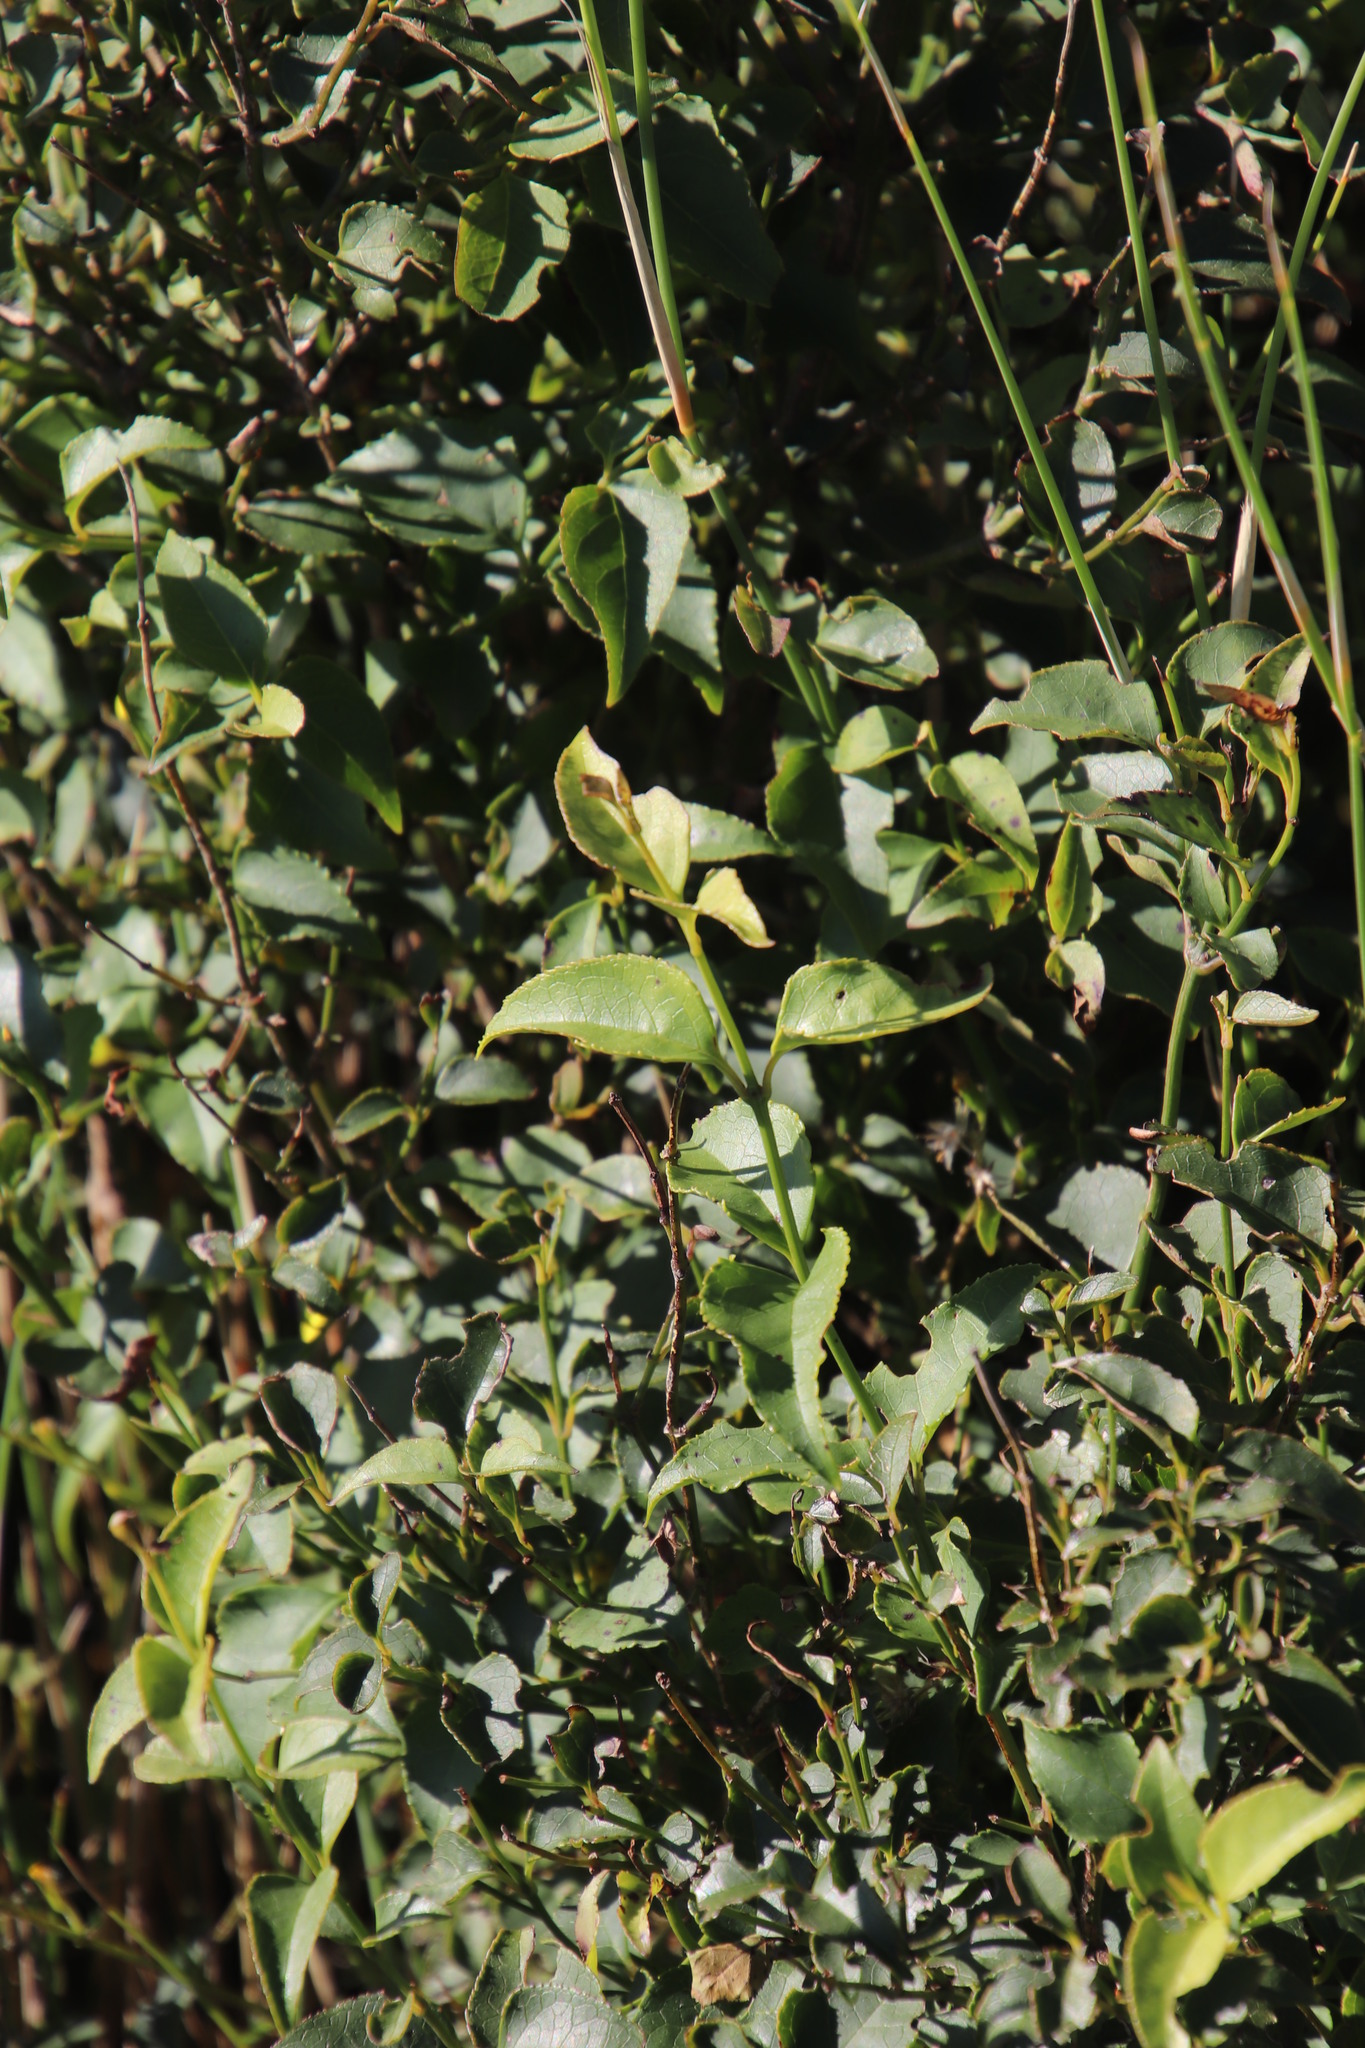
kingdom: Plantae
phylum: Tracheophyta
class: Magnoliopsida
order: Lamiales
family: Stilbaceae
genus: Halleria
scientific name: Halleria lucida
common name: Tree fuschia
